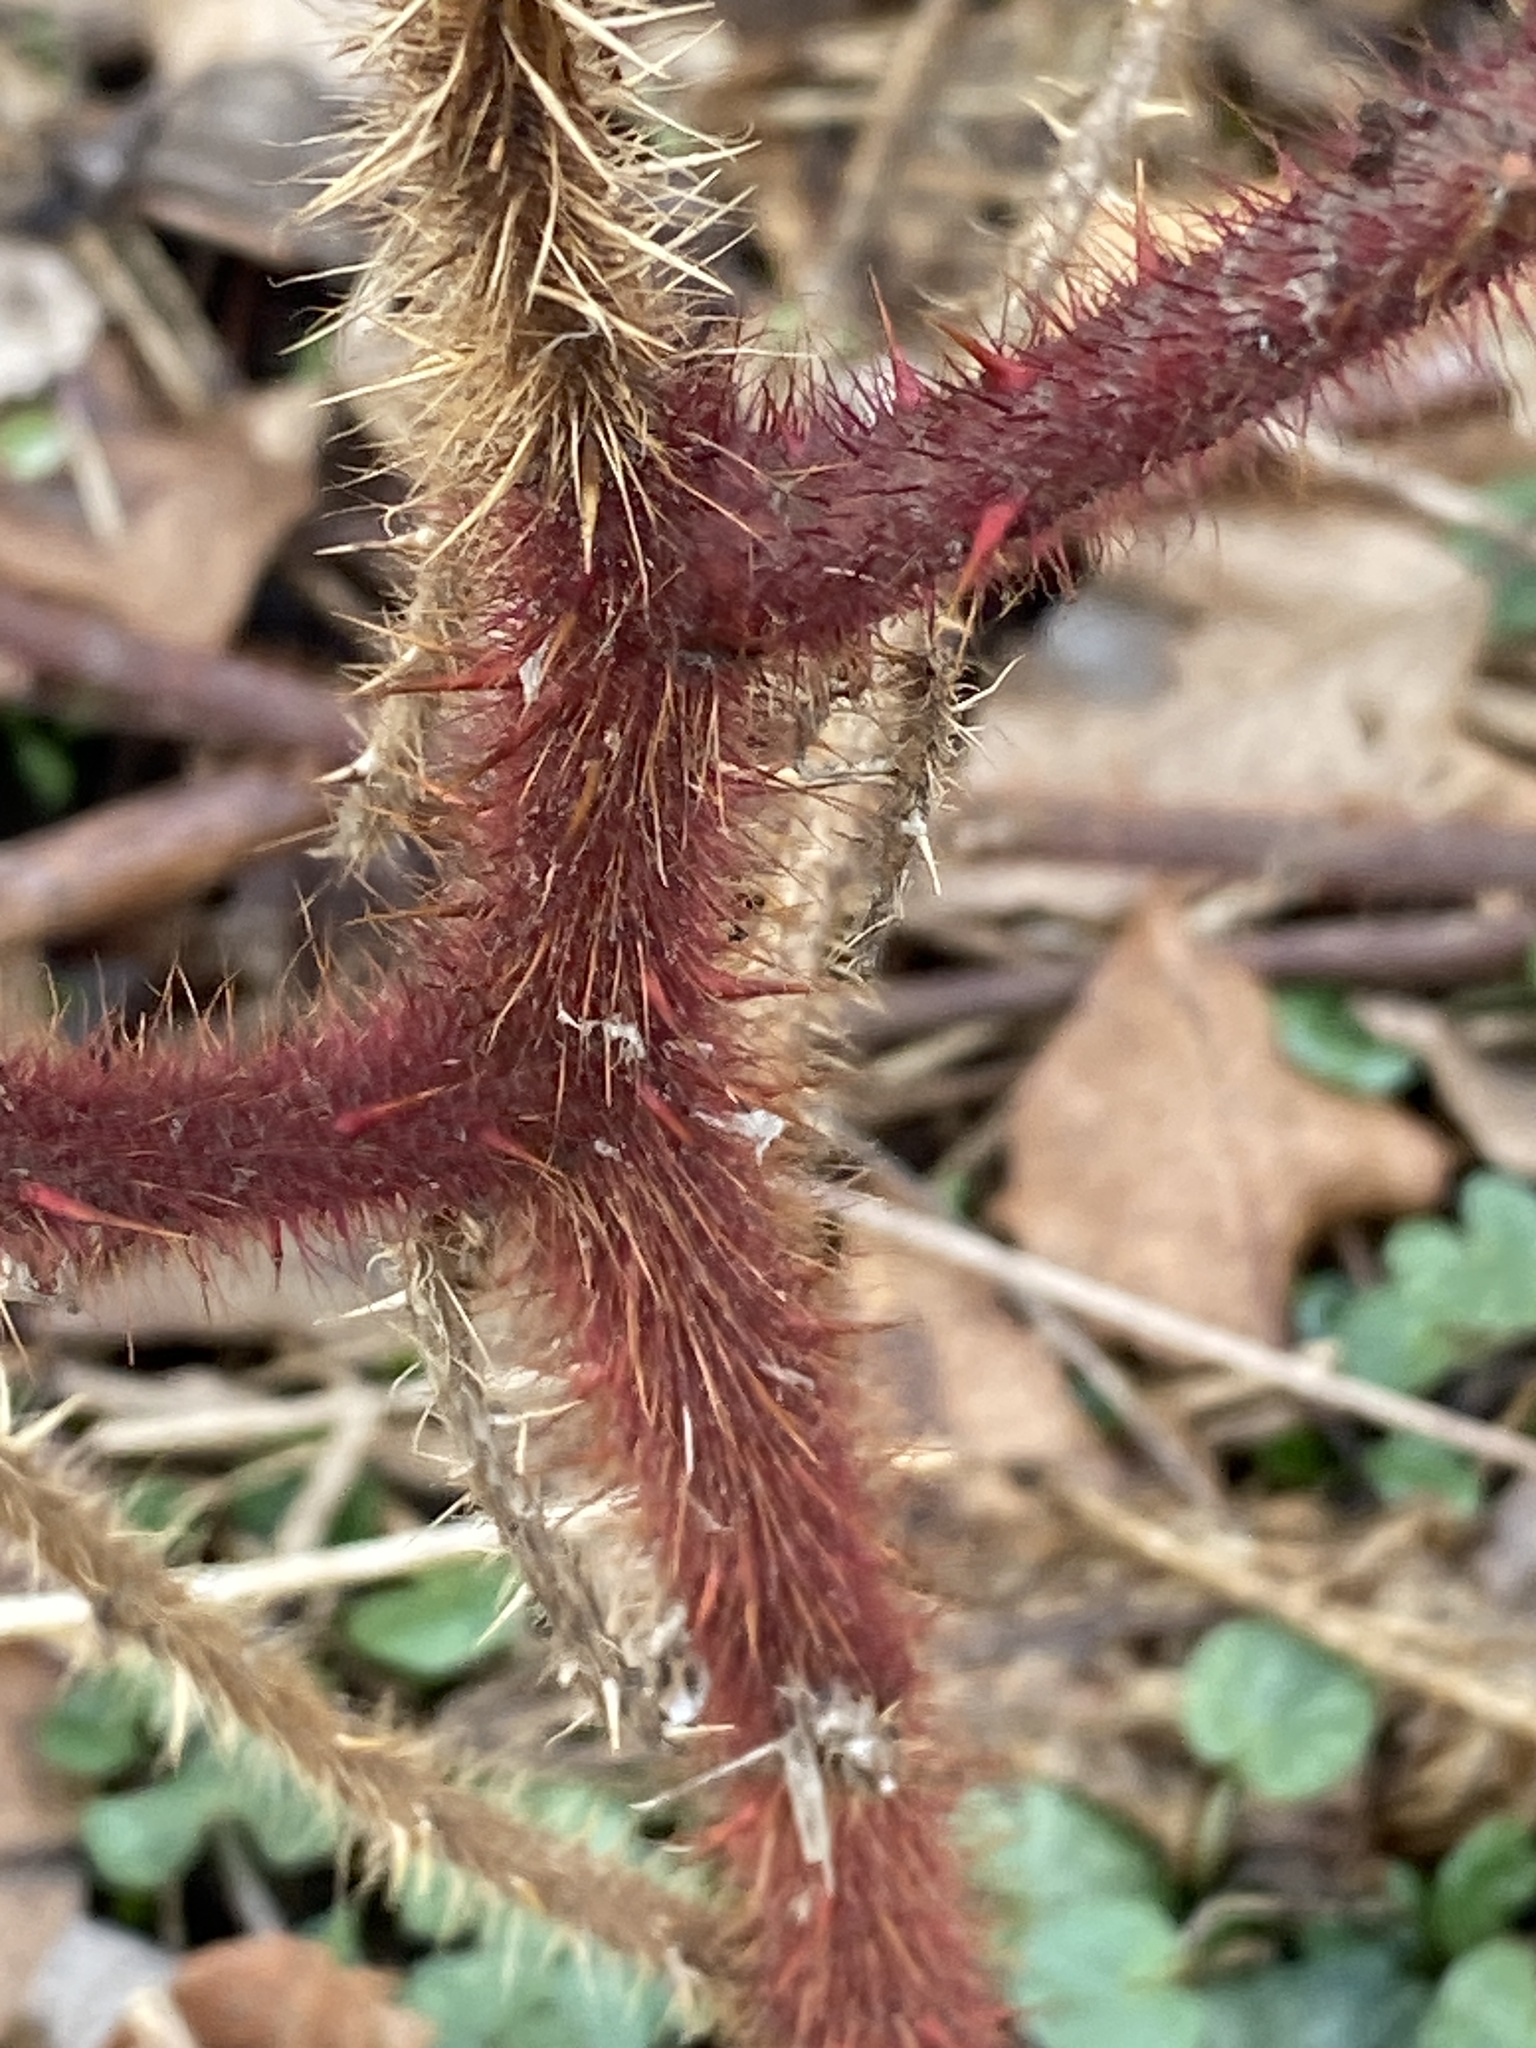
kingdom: Plantae
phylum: Tracheophyta
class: Magnoliopsida
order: Rosales
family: Rosaceae
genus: Rubus
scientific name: Rubus phoenicolasius
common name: Japanese wineberry
